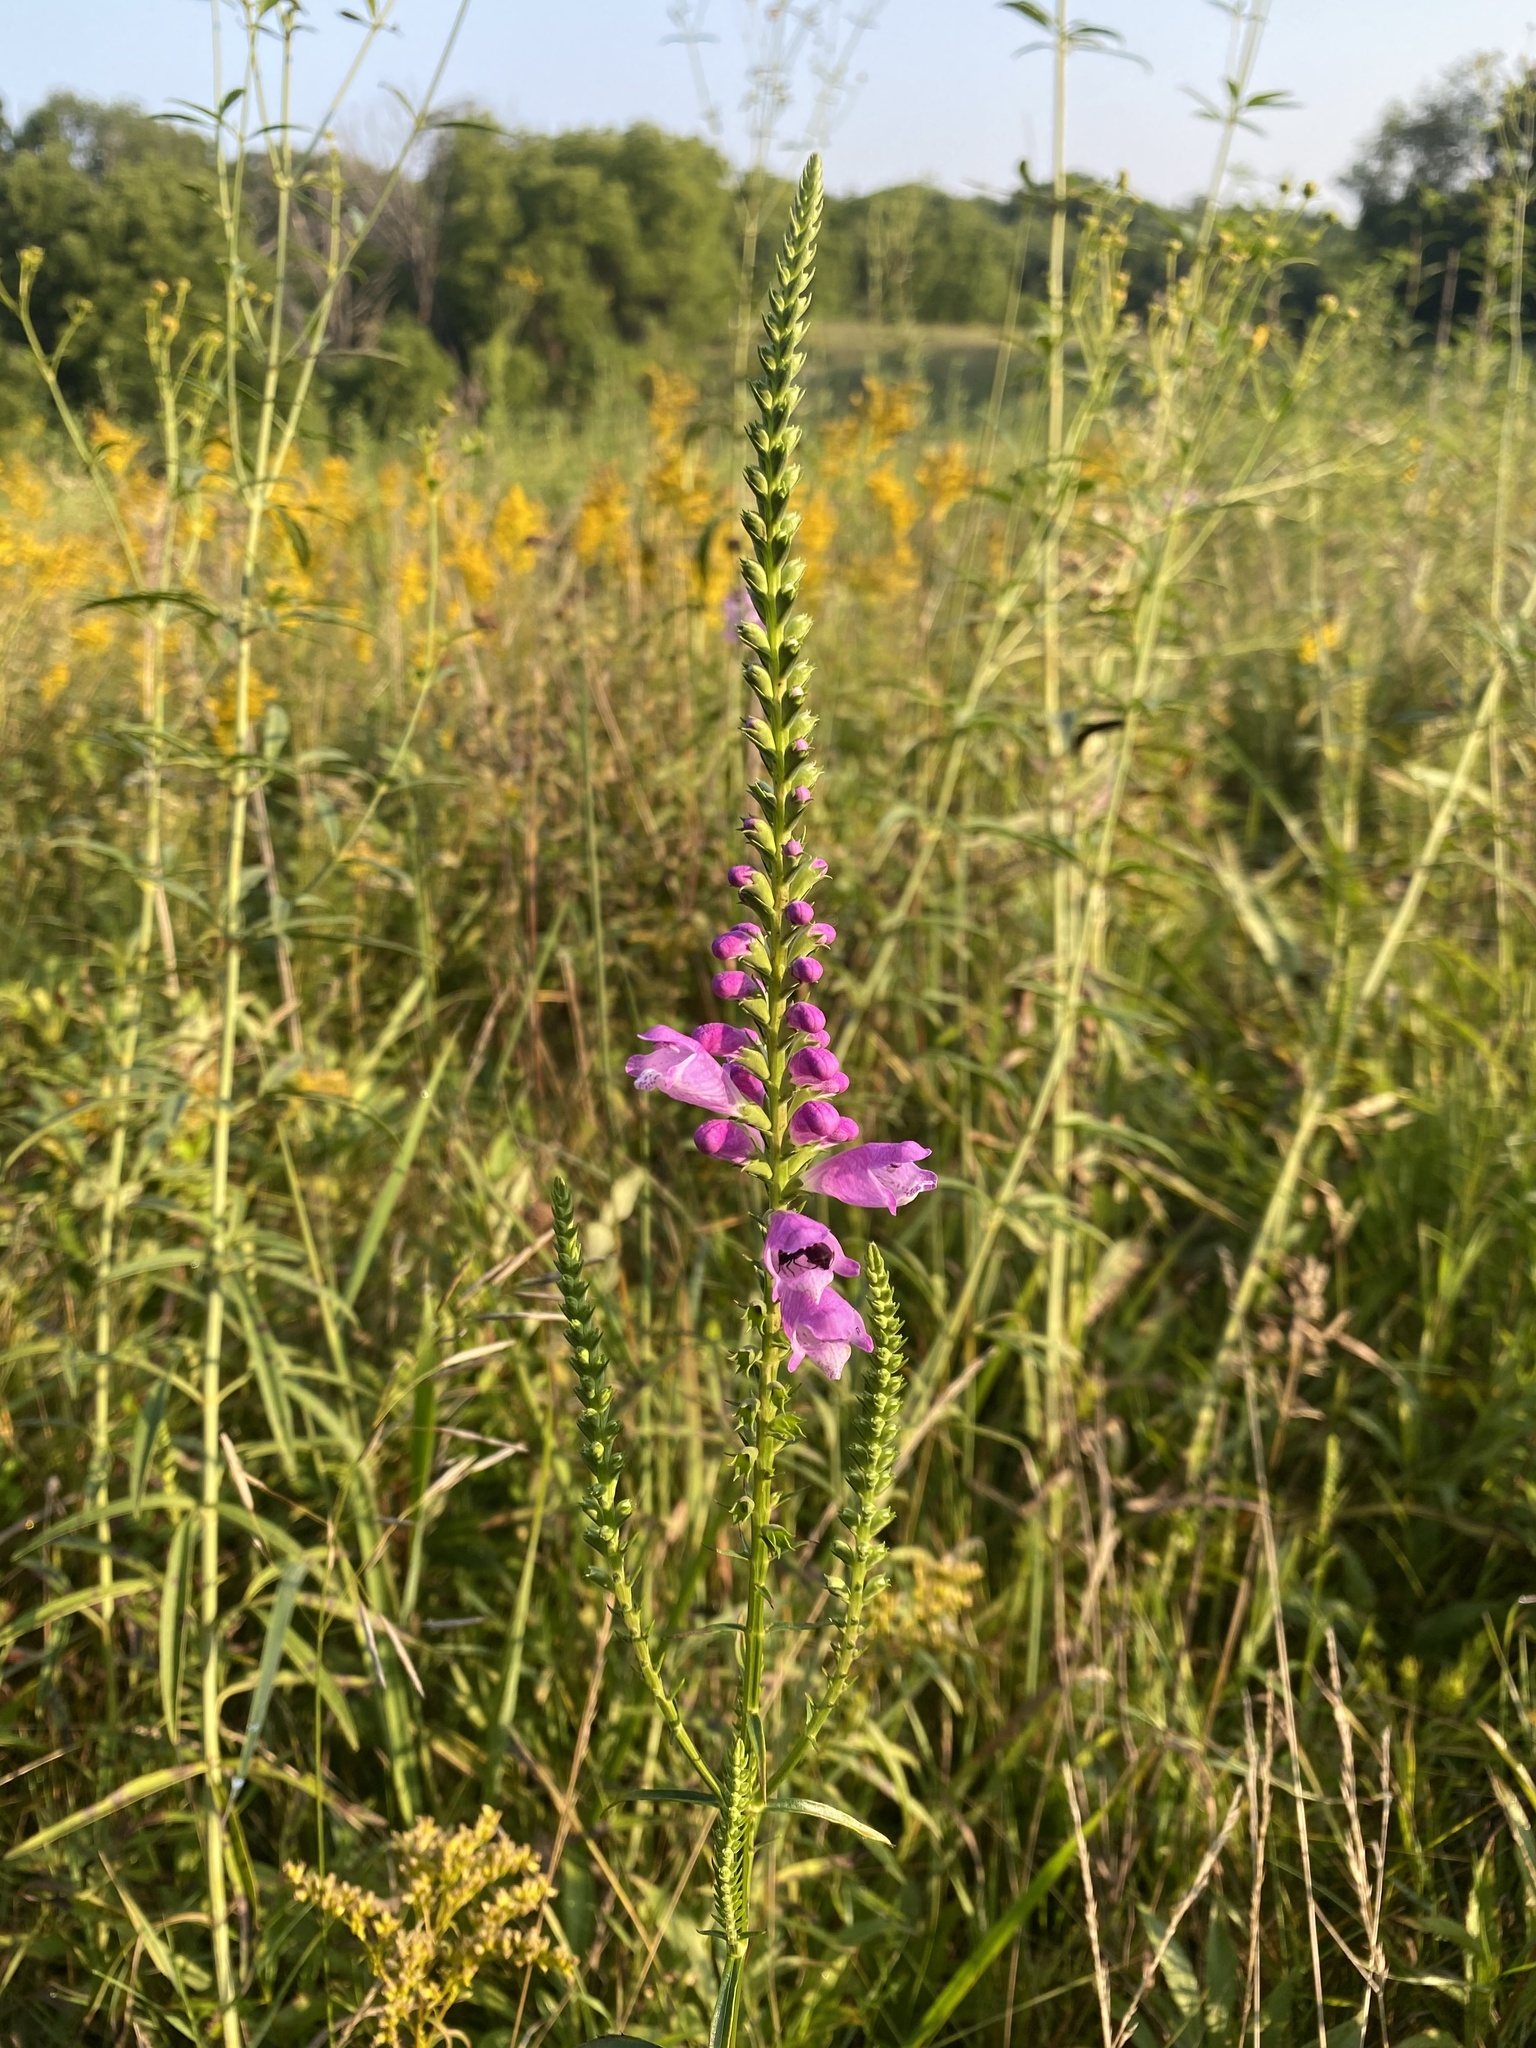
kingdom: Plantae
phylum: Tracheophyta
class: Magnoliopsida
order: Lamiales
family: Lamiaceae
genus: Physostegia
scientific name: Physostegia virginiana
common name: Obedient-plant
